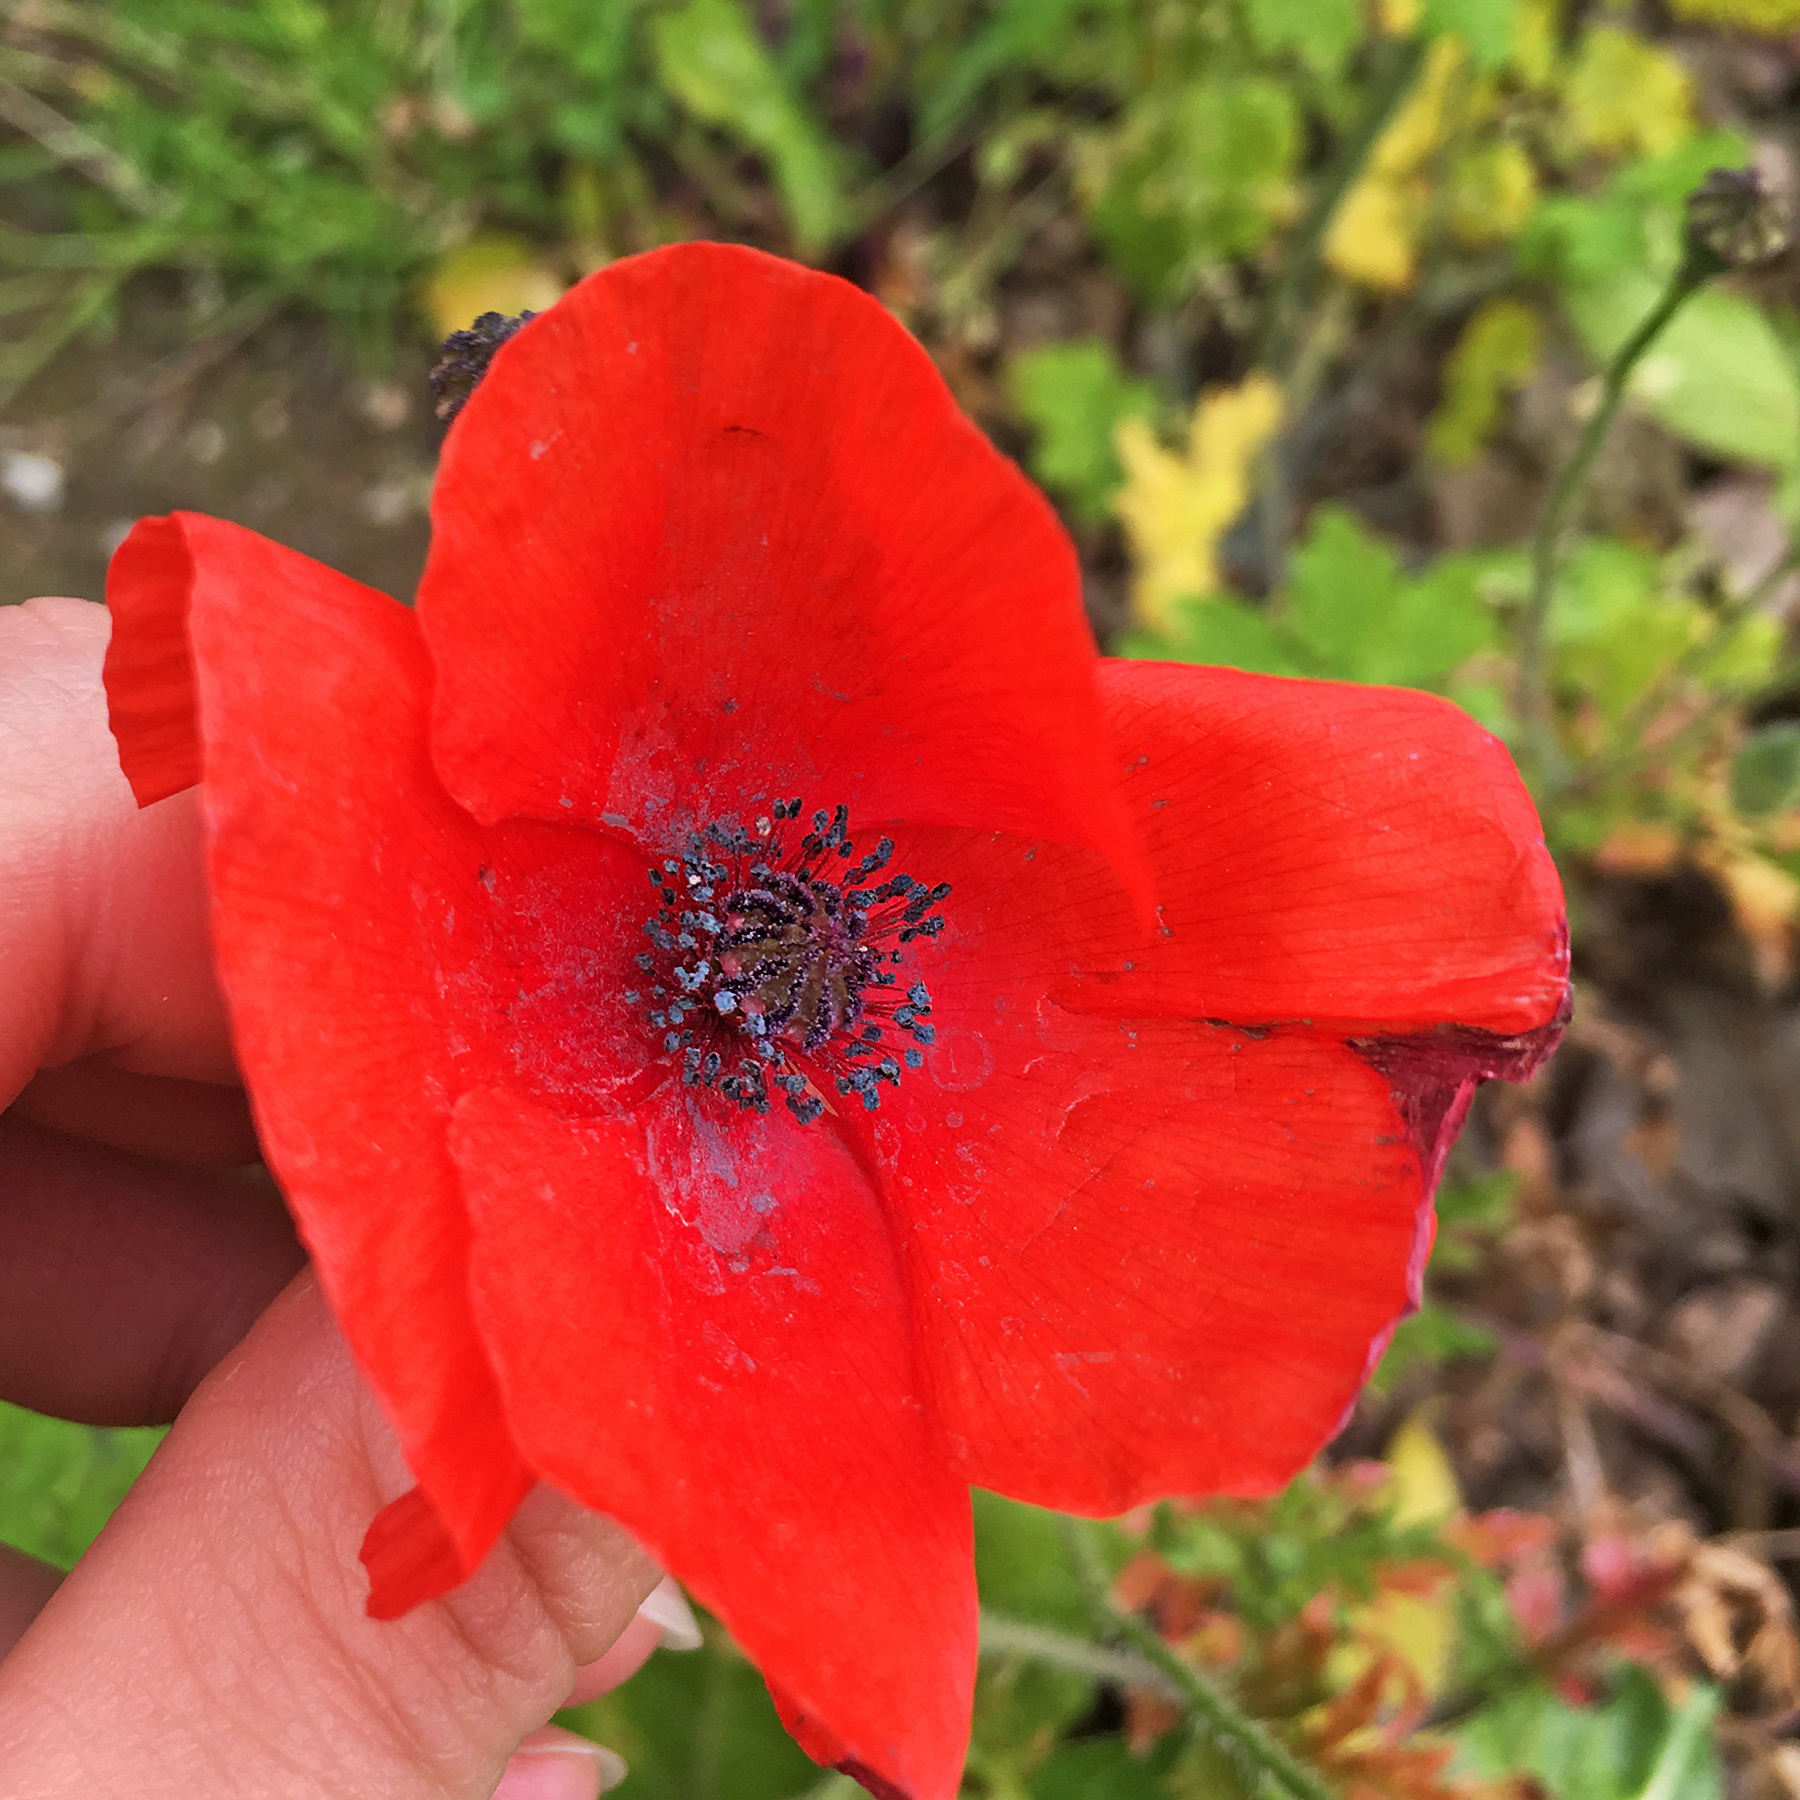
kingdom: Plantae
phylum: Tracheophyta
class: Magnoliopsida
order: Ranunculales
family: Papaveraceae
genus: Papaver
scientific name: Papaver rhoeas
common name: Corn poppy
